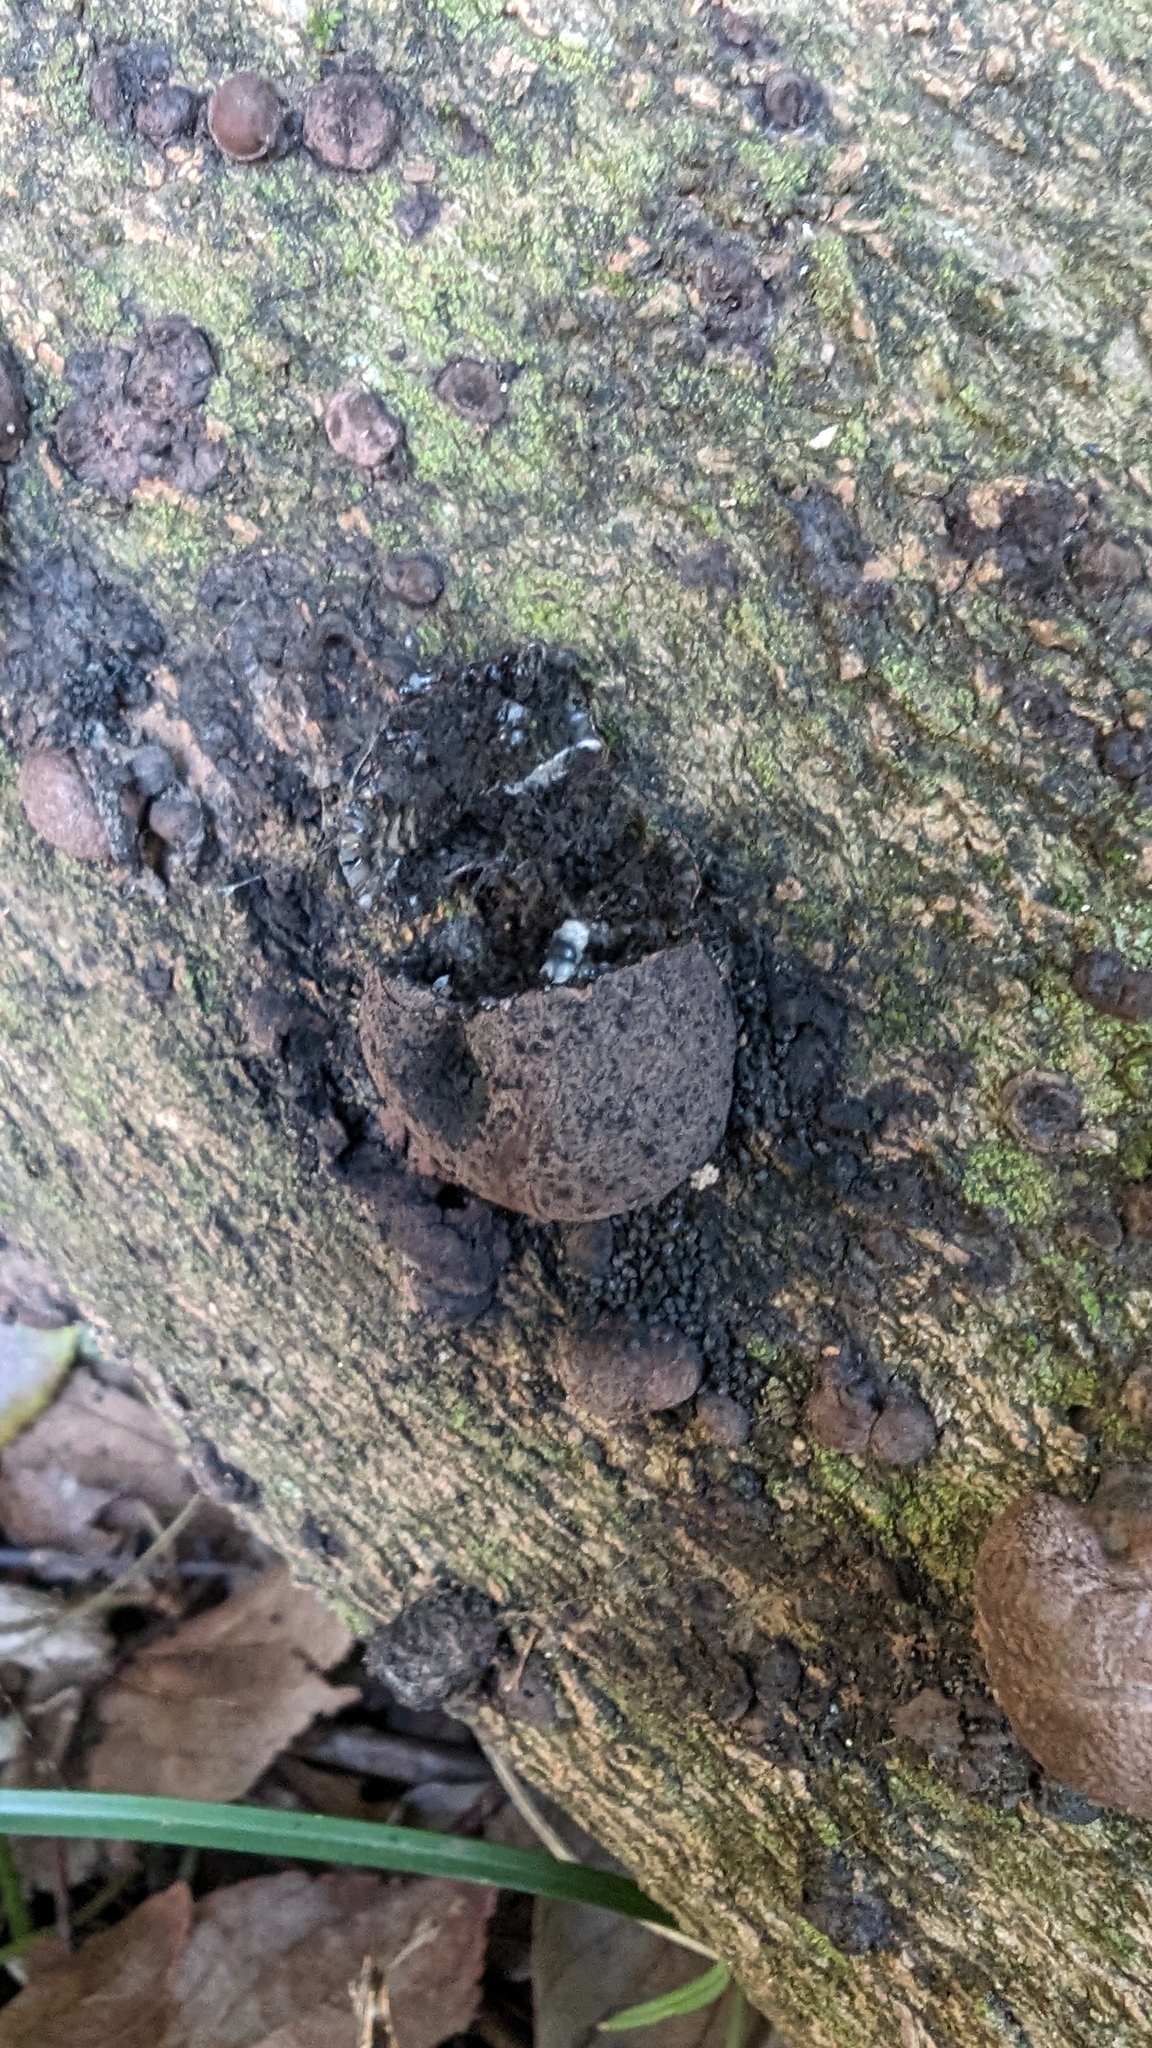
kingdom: Fungi
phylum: Ascomycota
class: Sordariomycetes
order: Xylariales
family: Hypoxylaceae
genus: Daldinia
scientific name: Daldinia childiae
